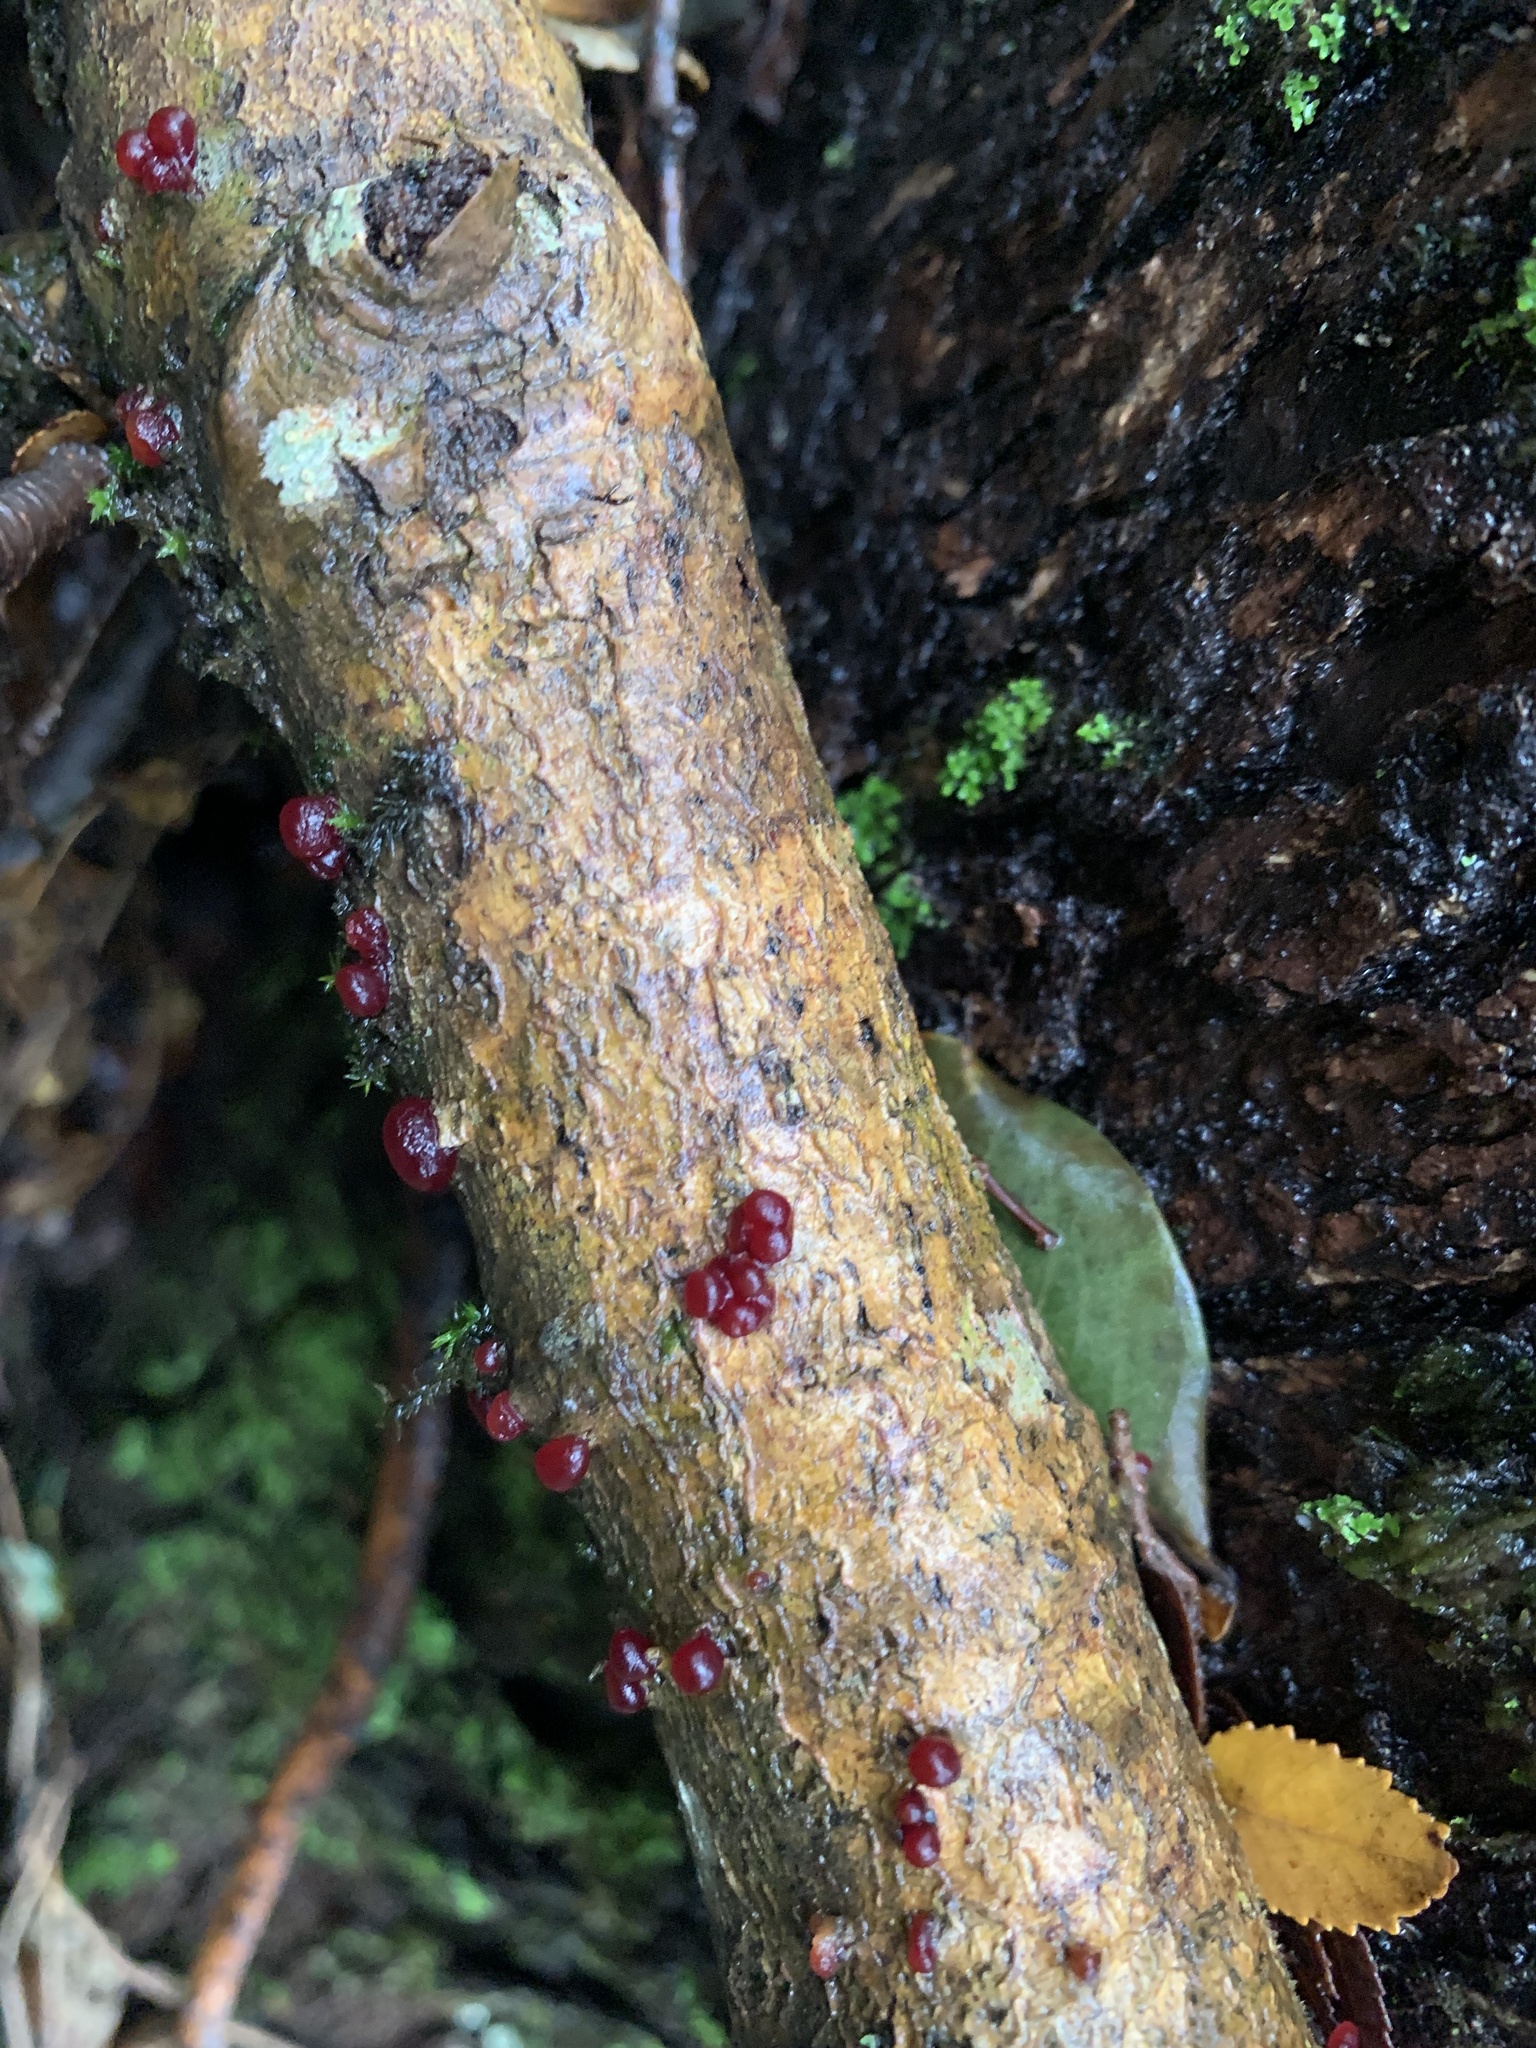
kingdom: Fungi
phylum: Basidiomycota
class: Dacrymycetes
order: Dacrymycetales
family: Dacrymycetaceae
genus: Guepiniopsis
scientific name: Guepiniopsis alpina
